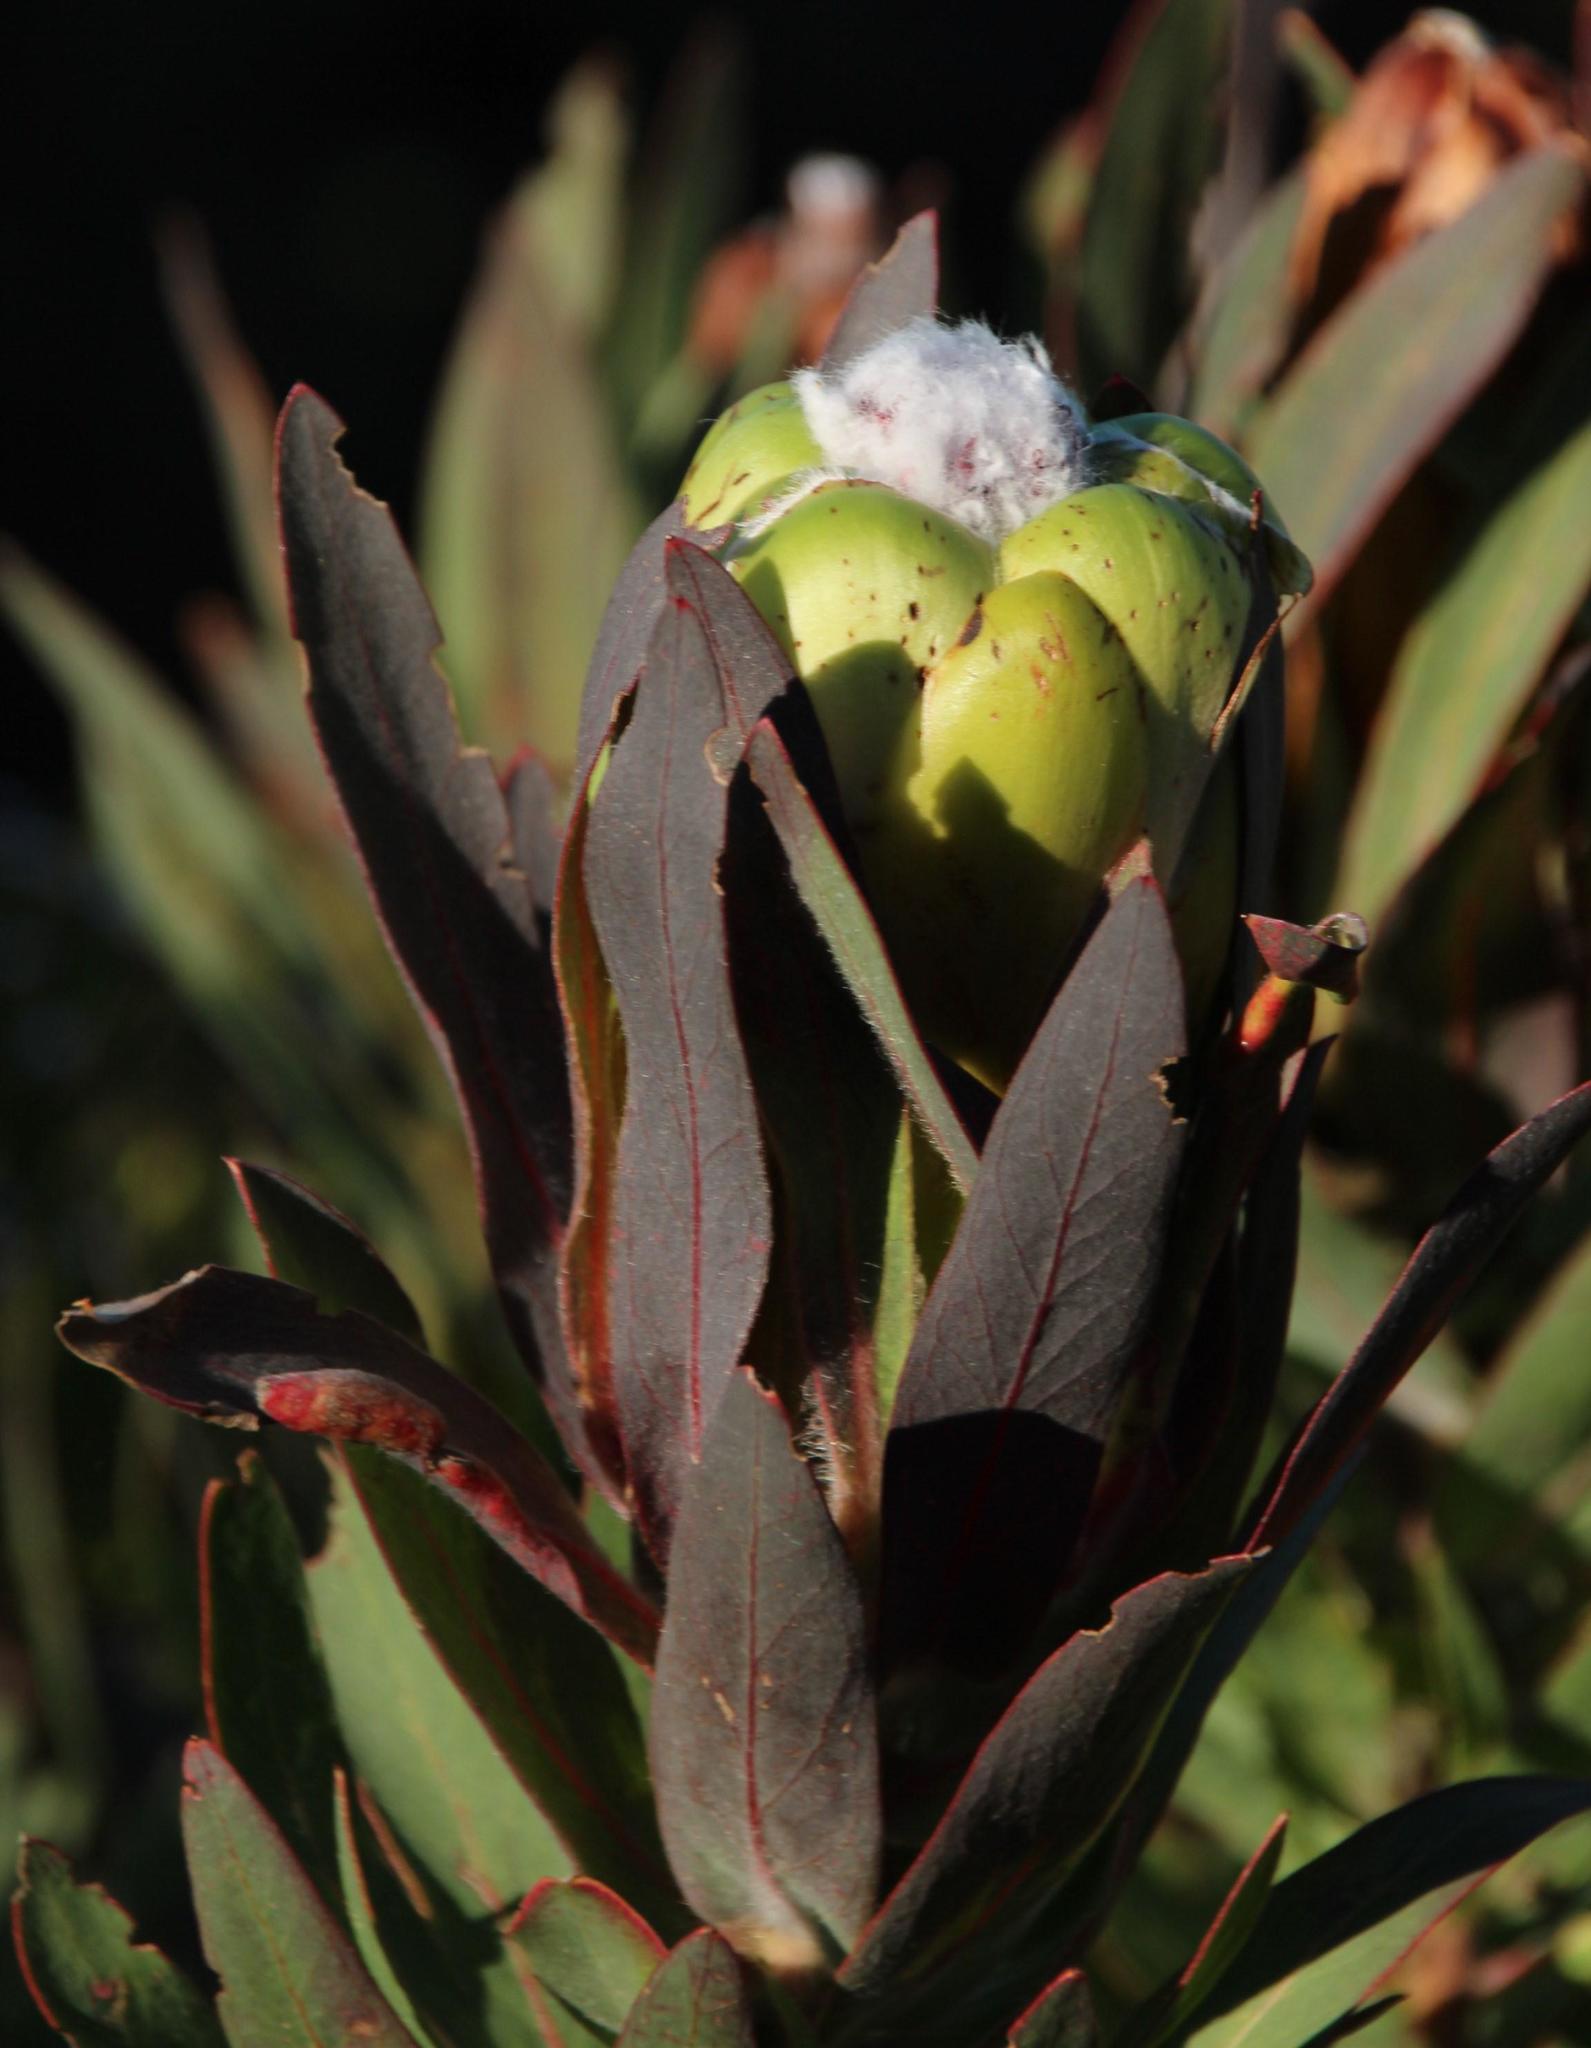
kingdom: Plantae
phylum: Tracheophyta
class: Magnoliopsida
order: Proteales
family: Proteaceae
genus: Protea
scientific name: Protea coronata
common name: Green sugarbush
